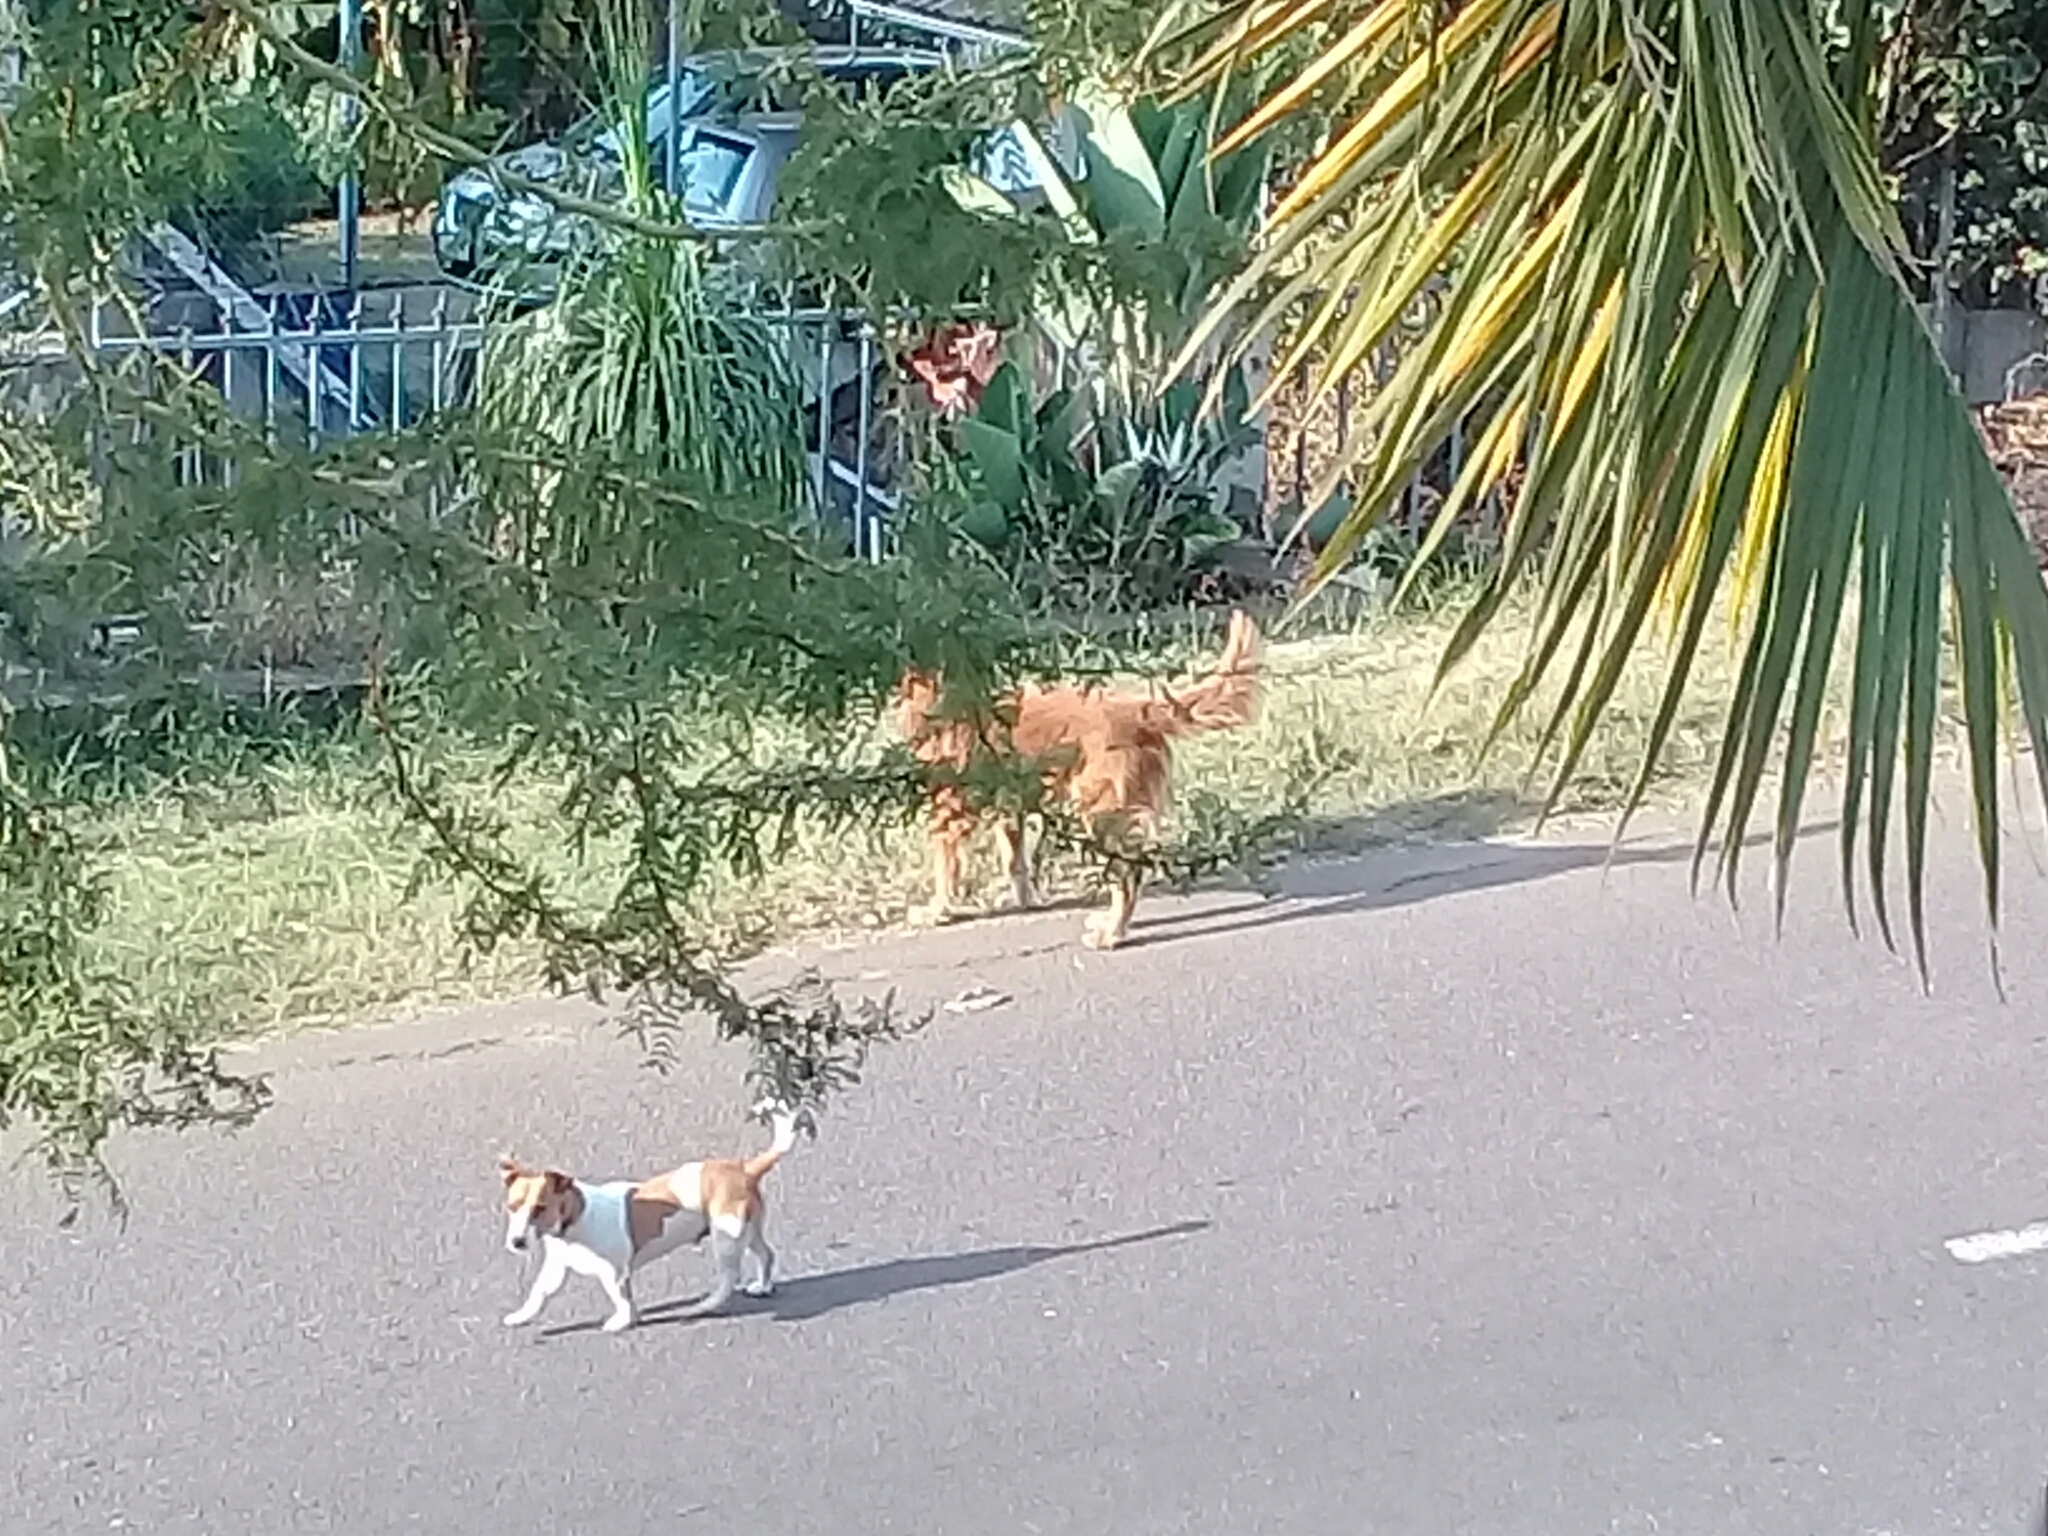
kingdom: Animalia
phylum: Chordata
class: Mammalia
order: Carnivora
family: Canidae
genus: Canis
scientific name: Canis lupus
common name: Gray wolf
